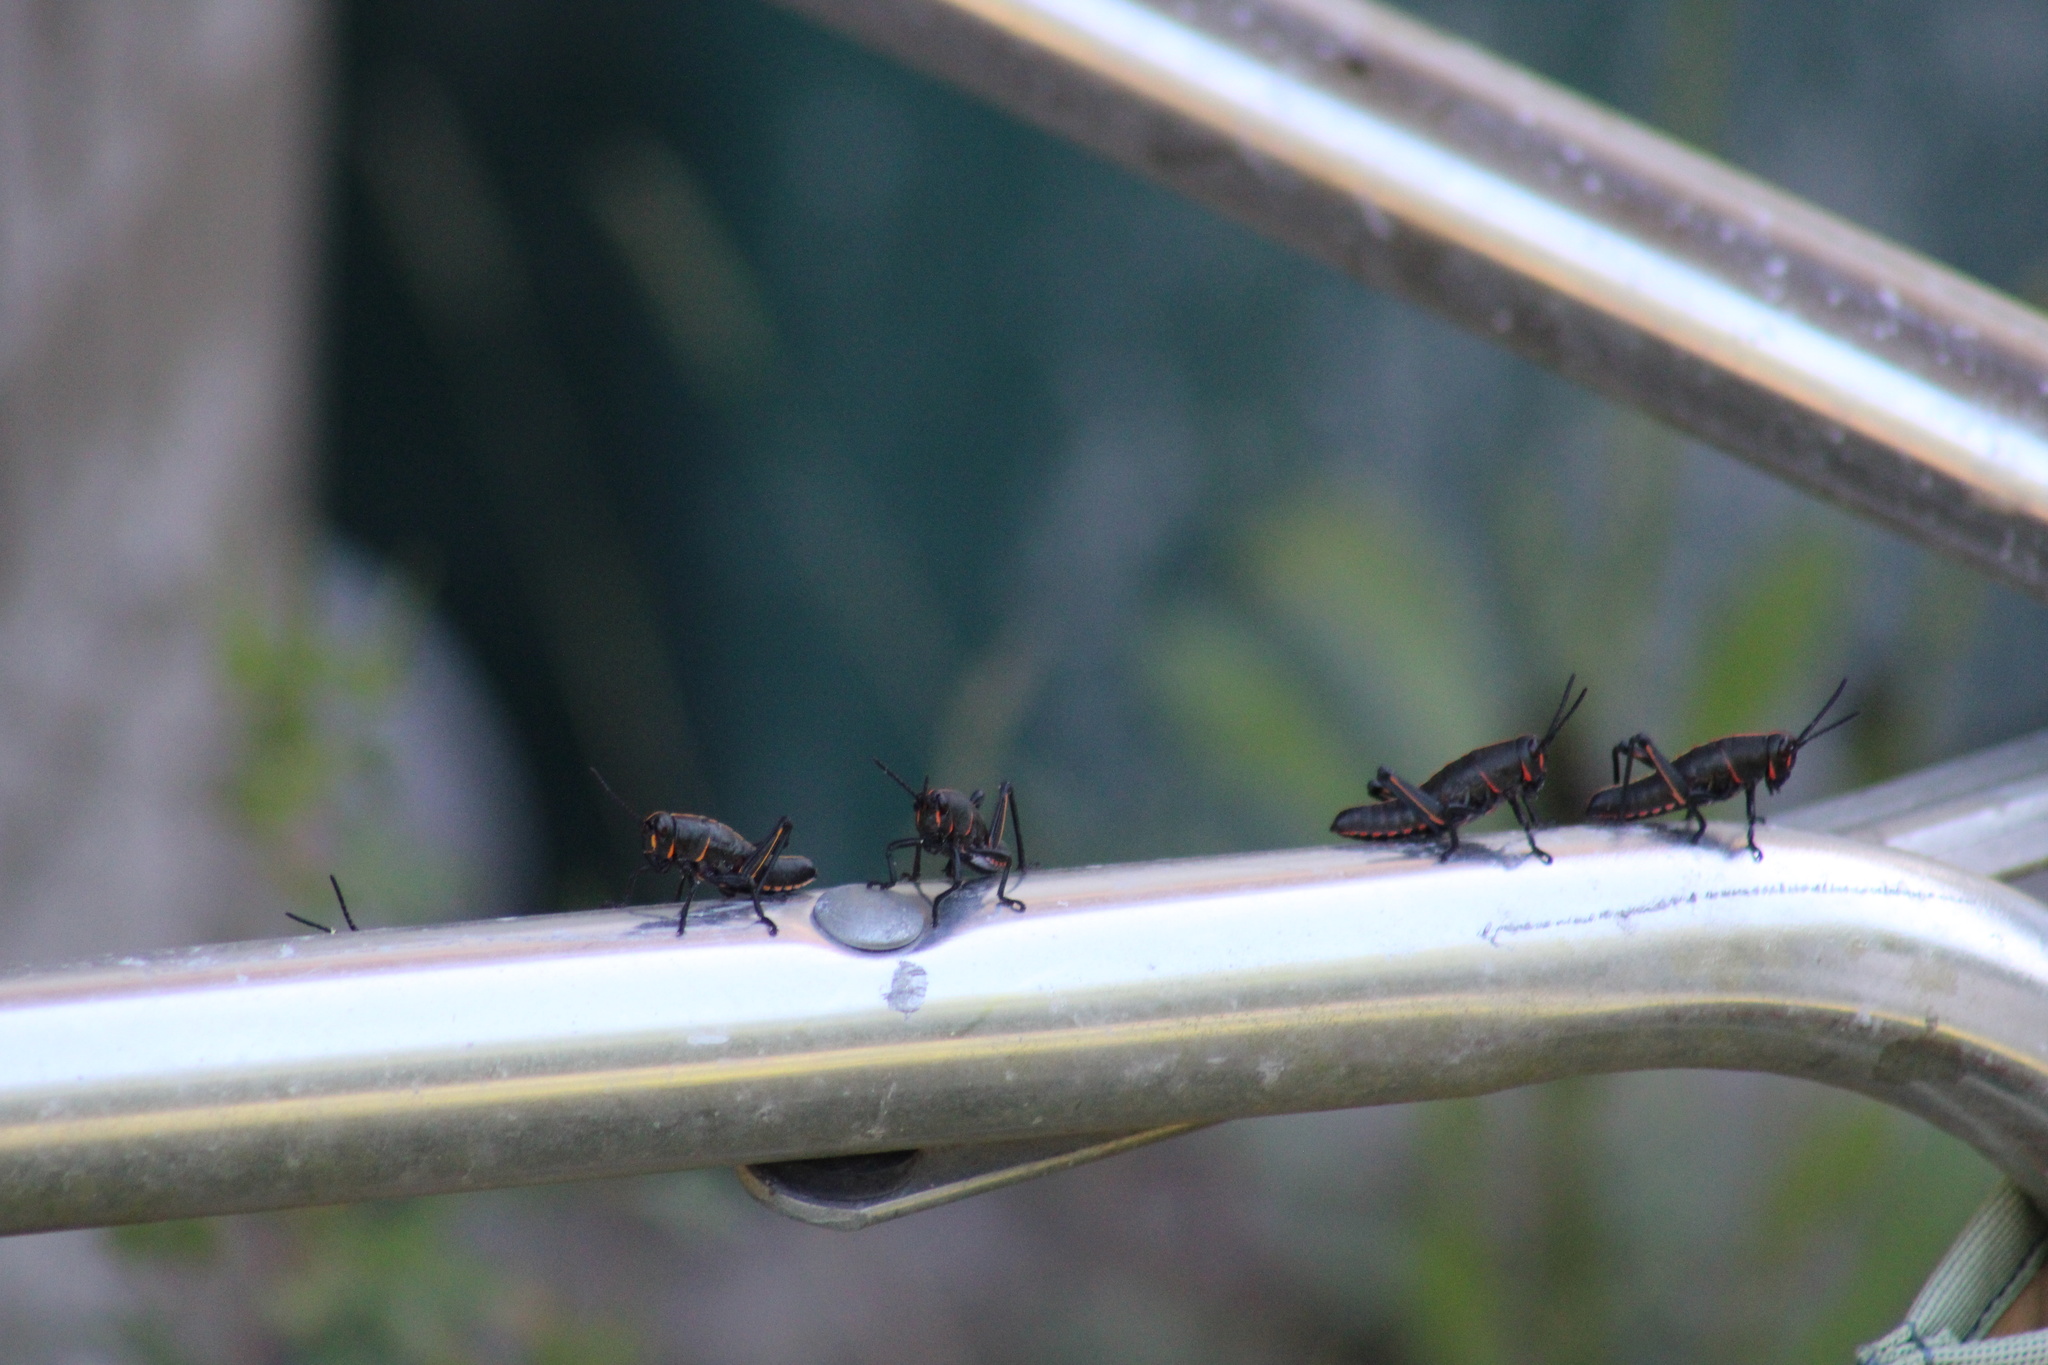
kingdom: Animalia
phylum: Arthropoda
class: Insecta
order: Orthoptera
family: Romaleidae
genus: Romalea
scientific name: Romalea microptera
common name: Eastern lubber grasshopper
